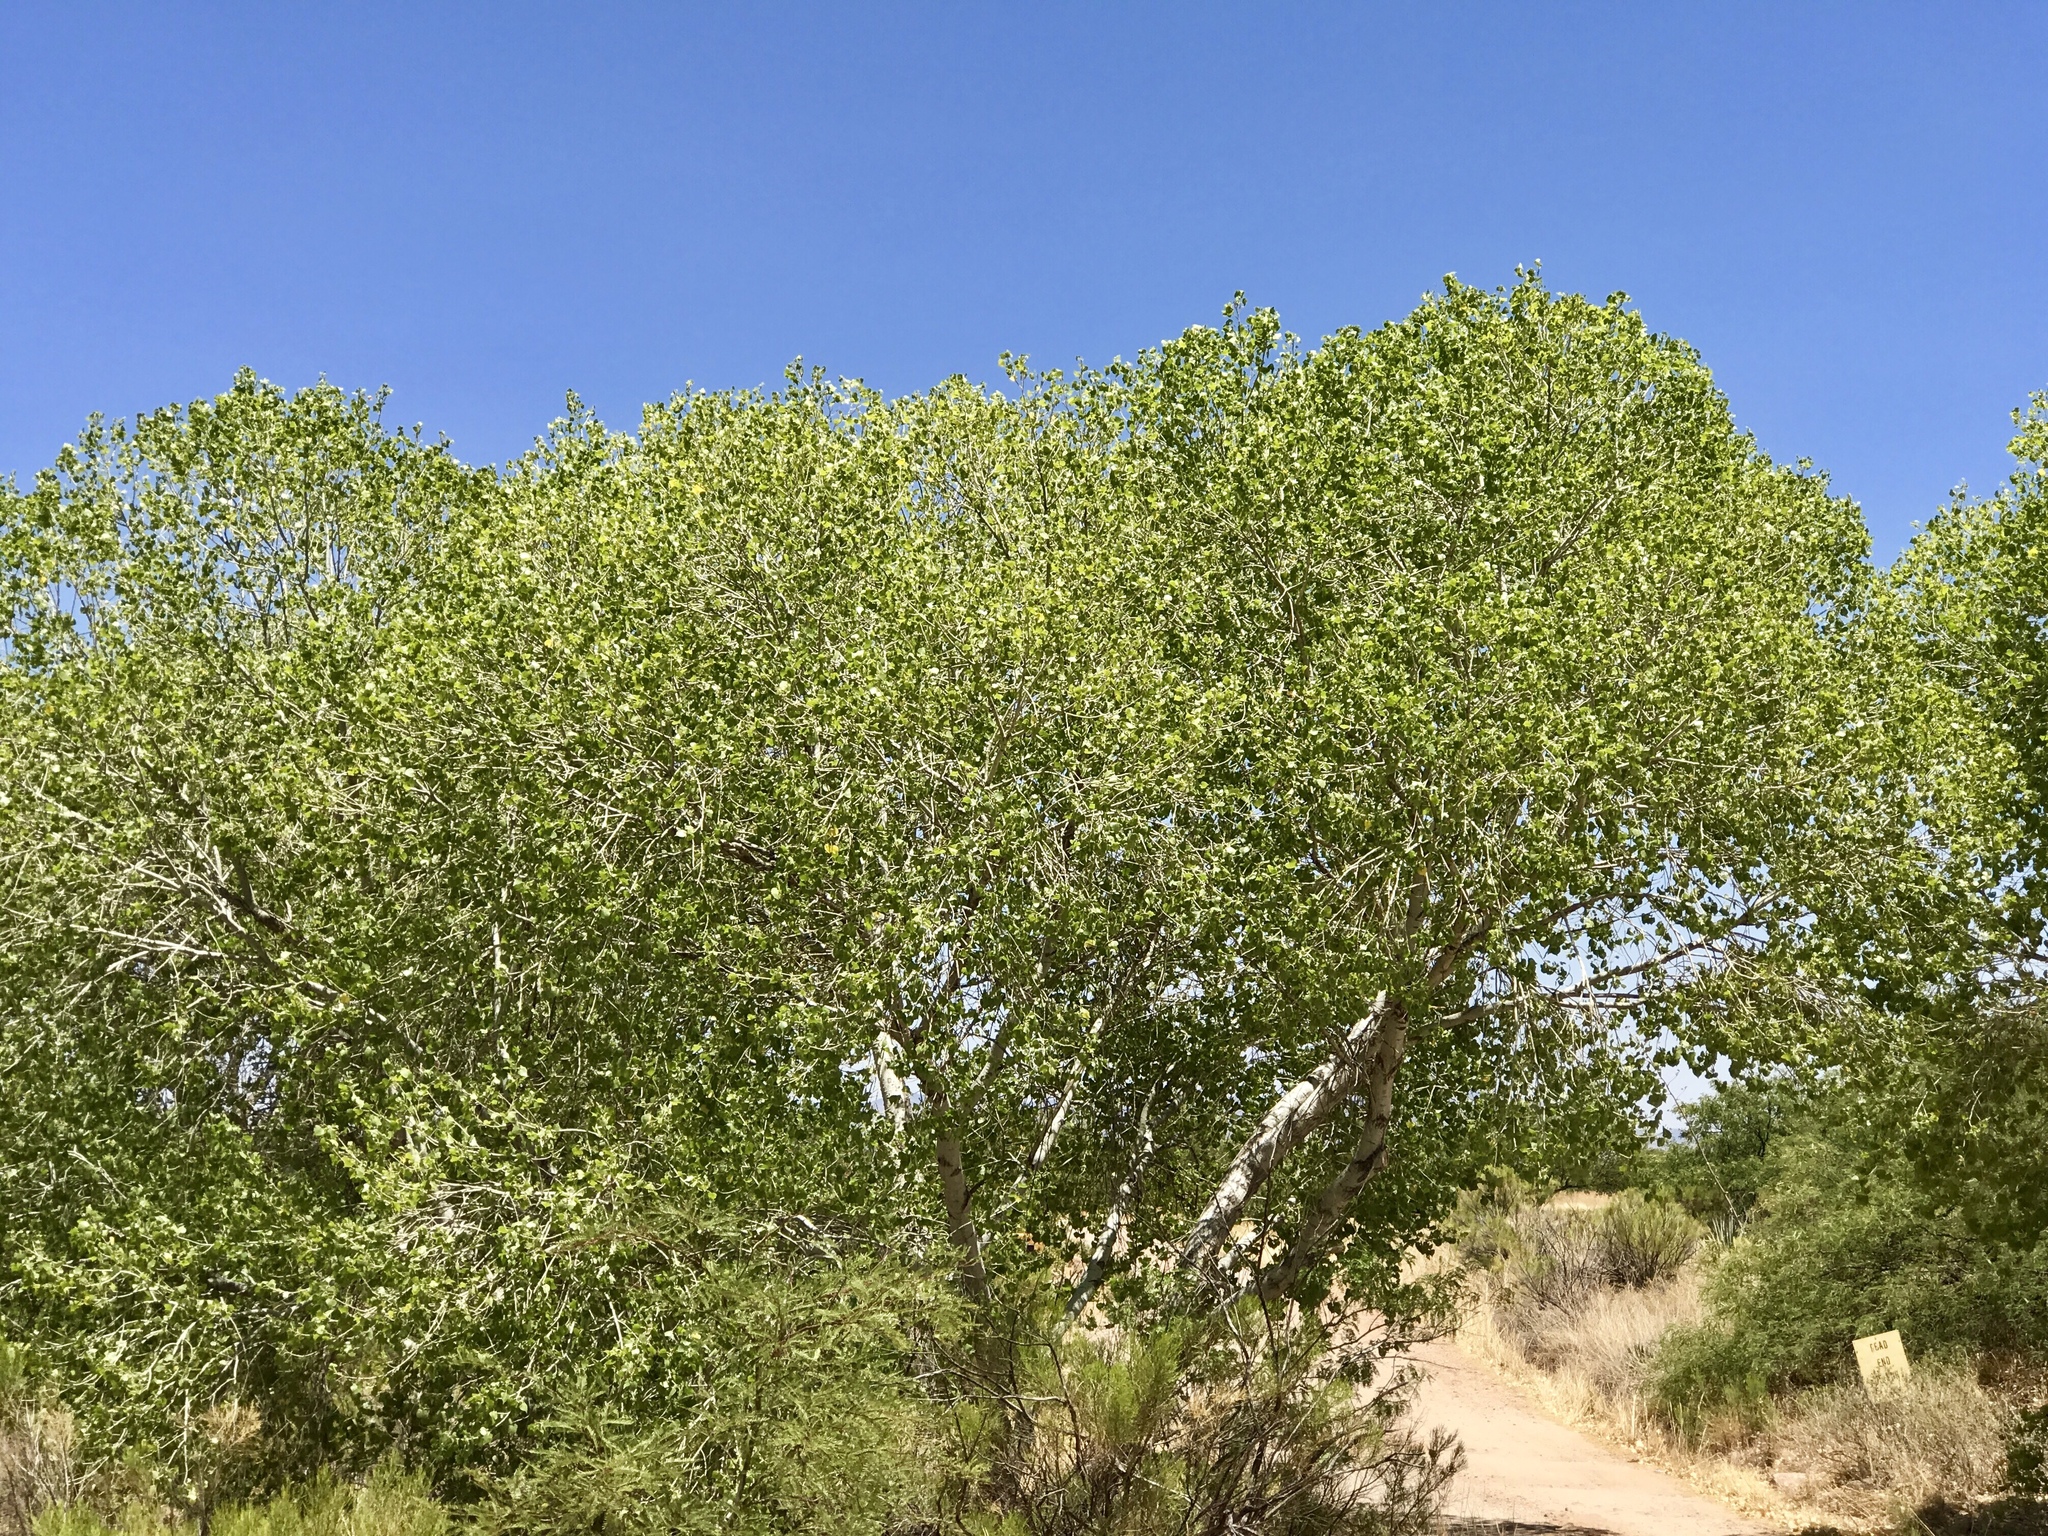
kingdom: Plantae
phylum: Tracheophyta
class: Magnoliopsida
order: Proteales
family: Platanaceae
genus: Platanus
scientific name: Platanus wrightii
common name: Arizona sycamore
